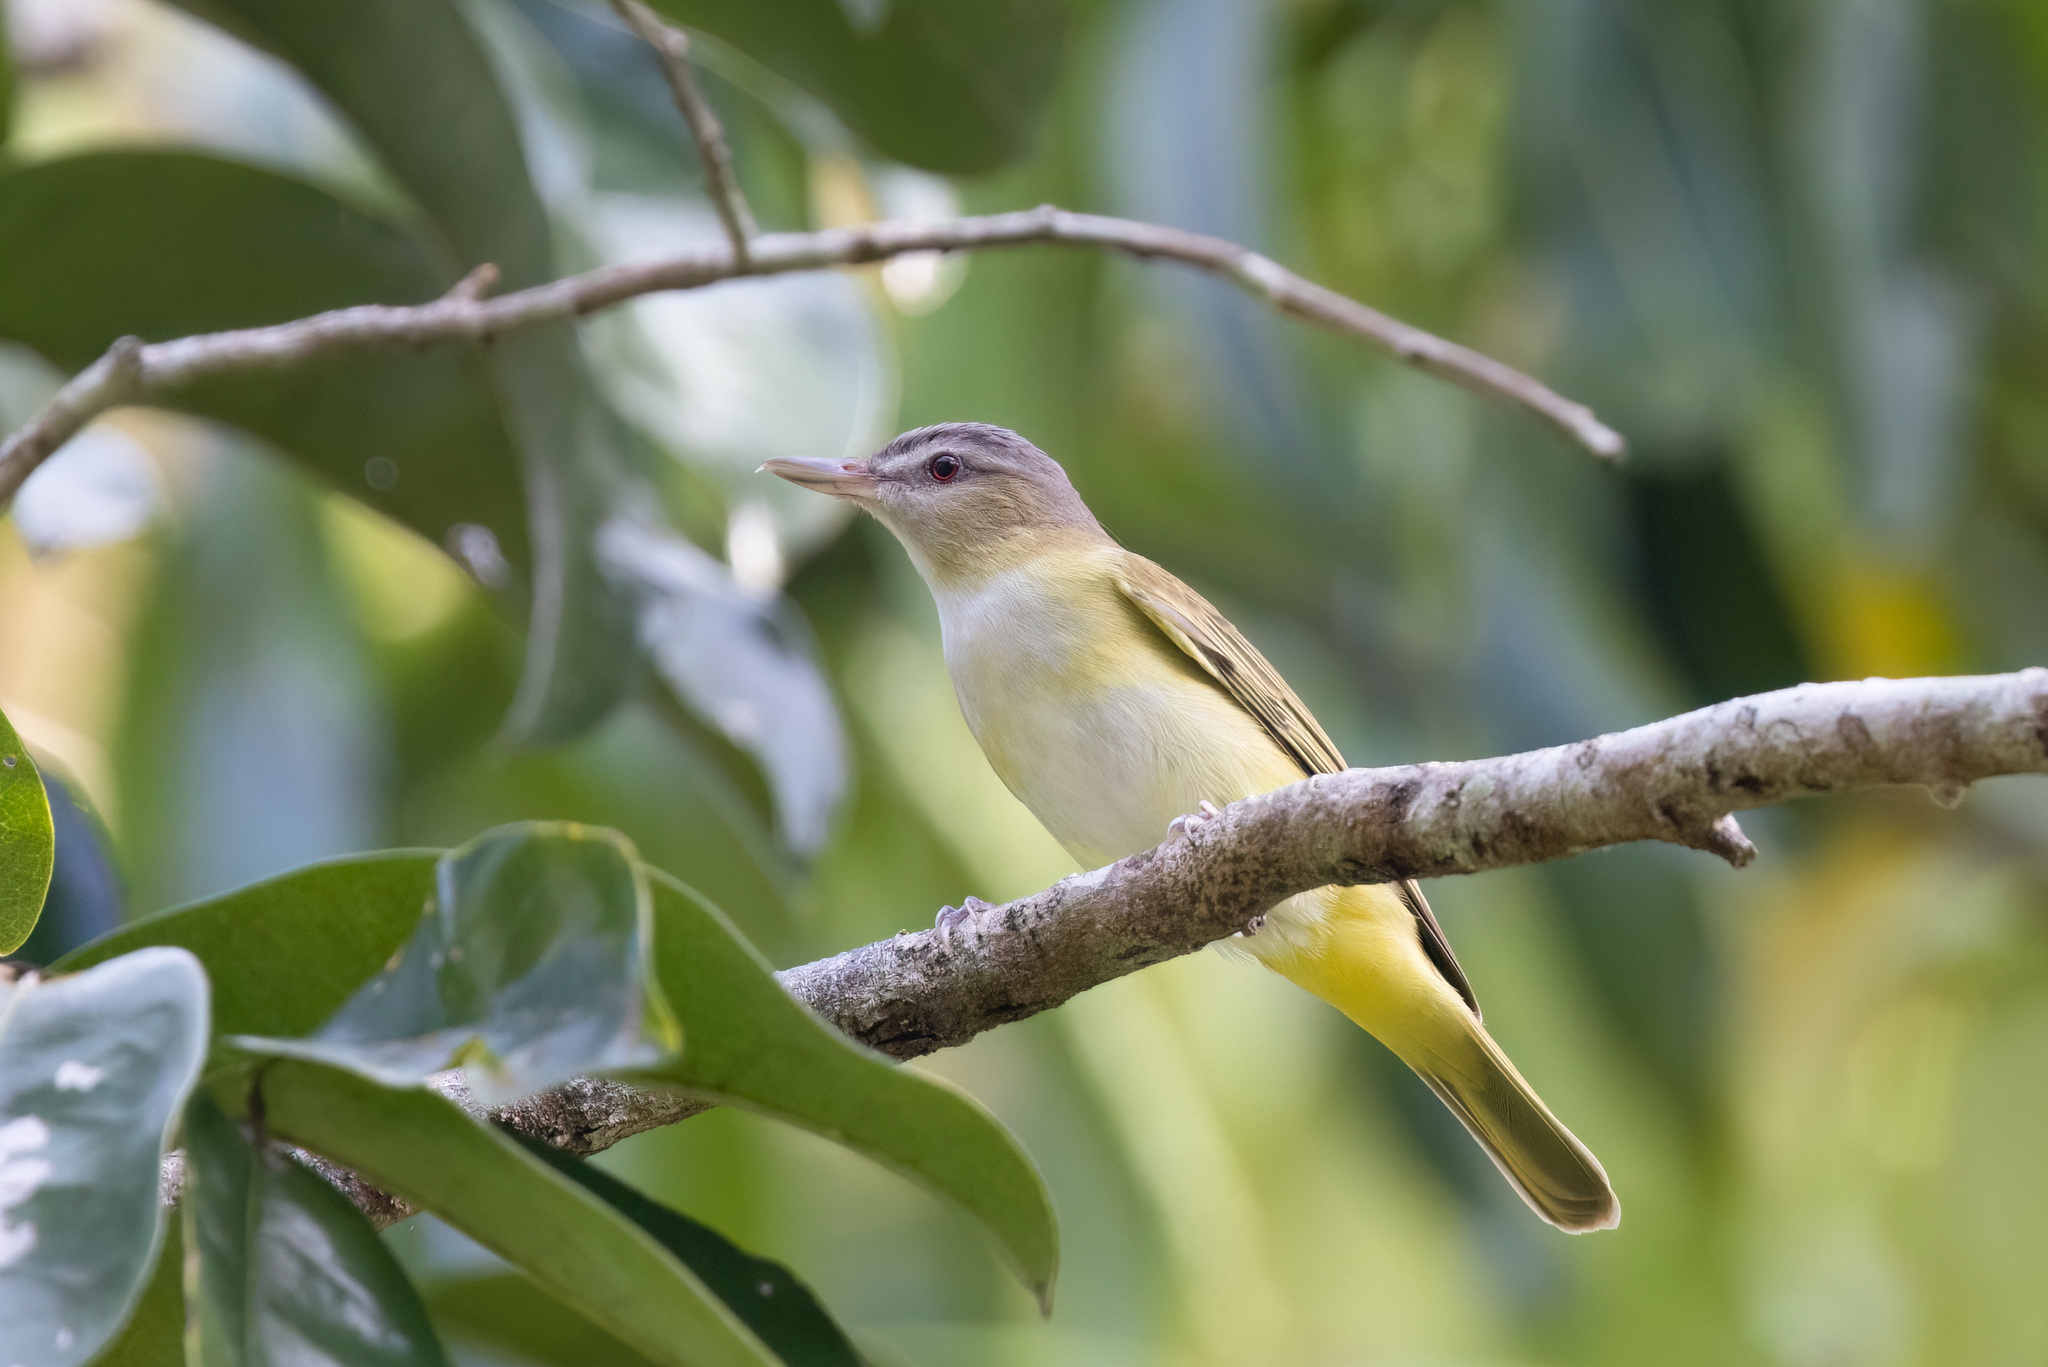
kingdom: Animalia
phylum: Chordata
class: Aves
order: Passeriformes
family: Vireonidae
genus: Vireo
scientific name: Vireo flavoviridis
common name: Yellow-green vireo
